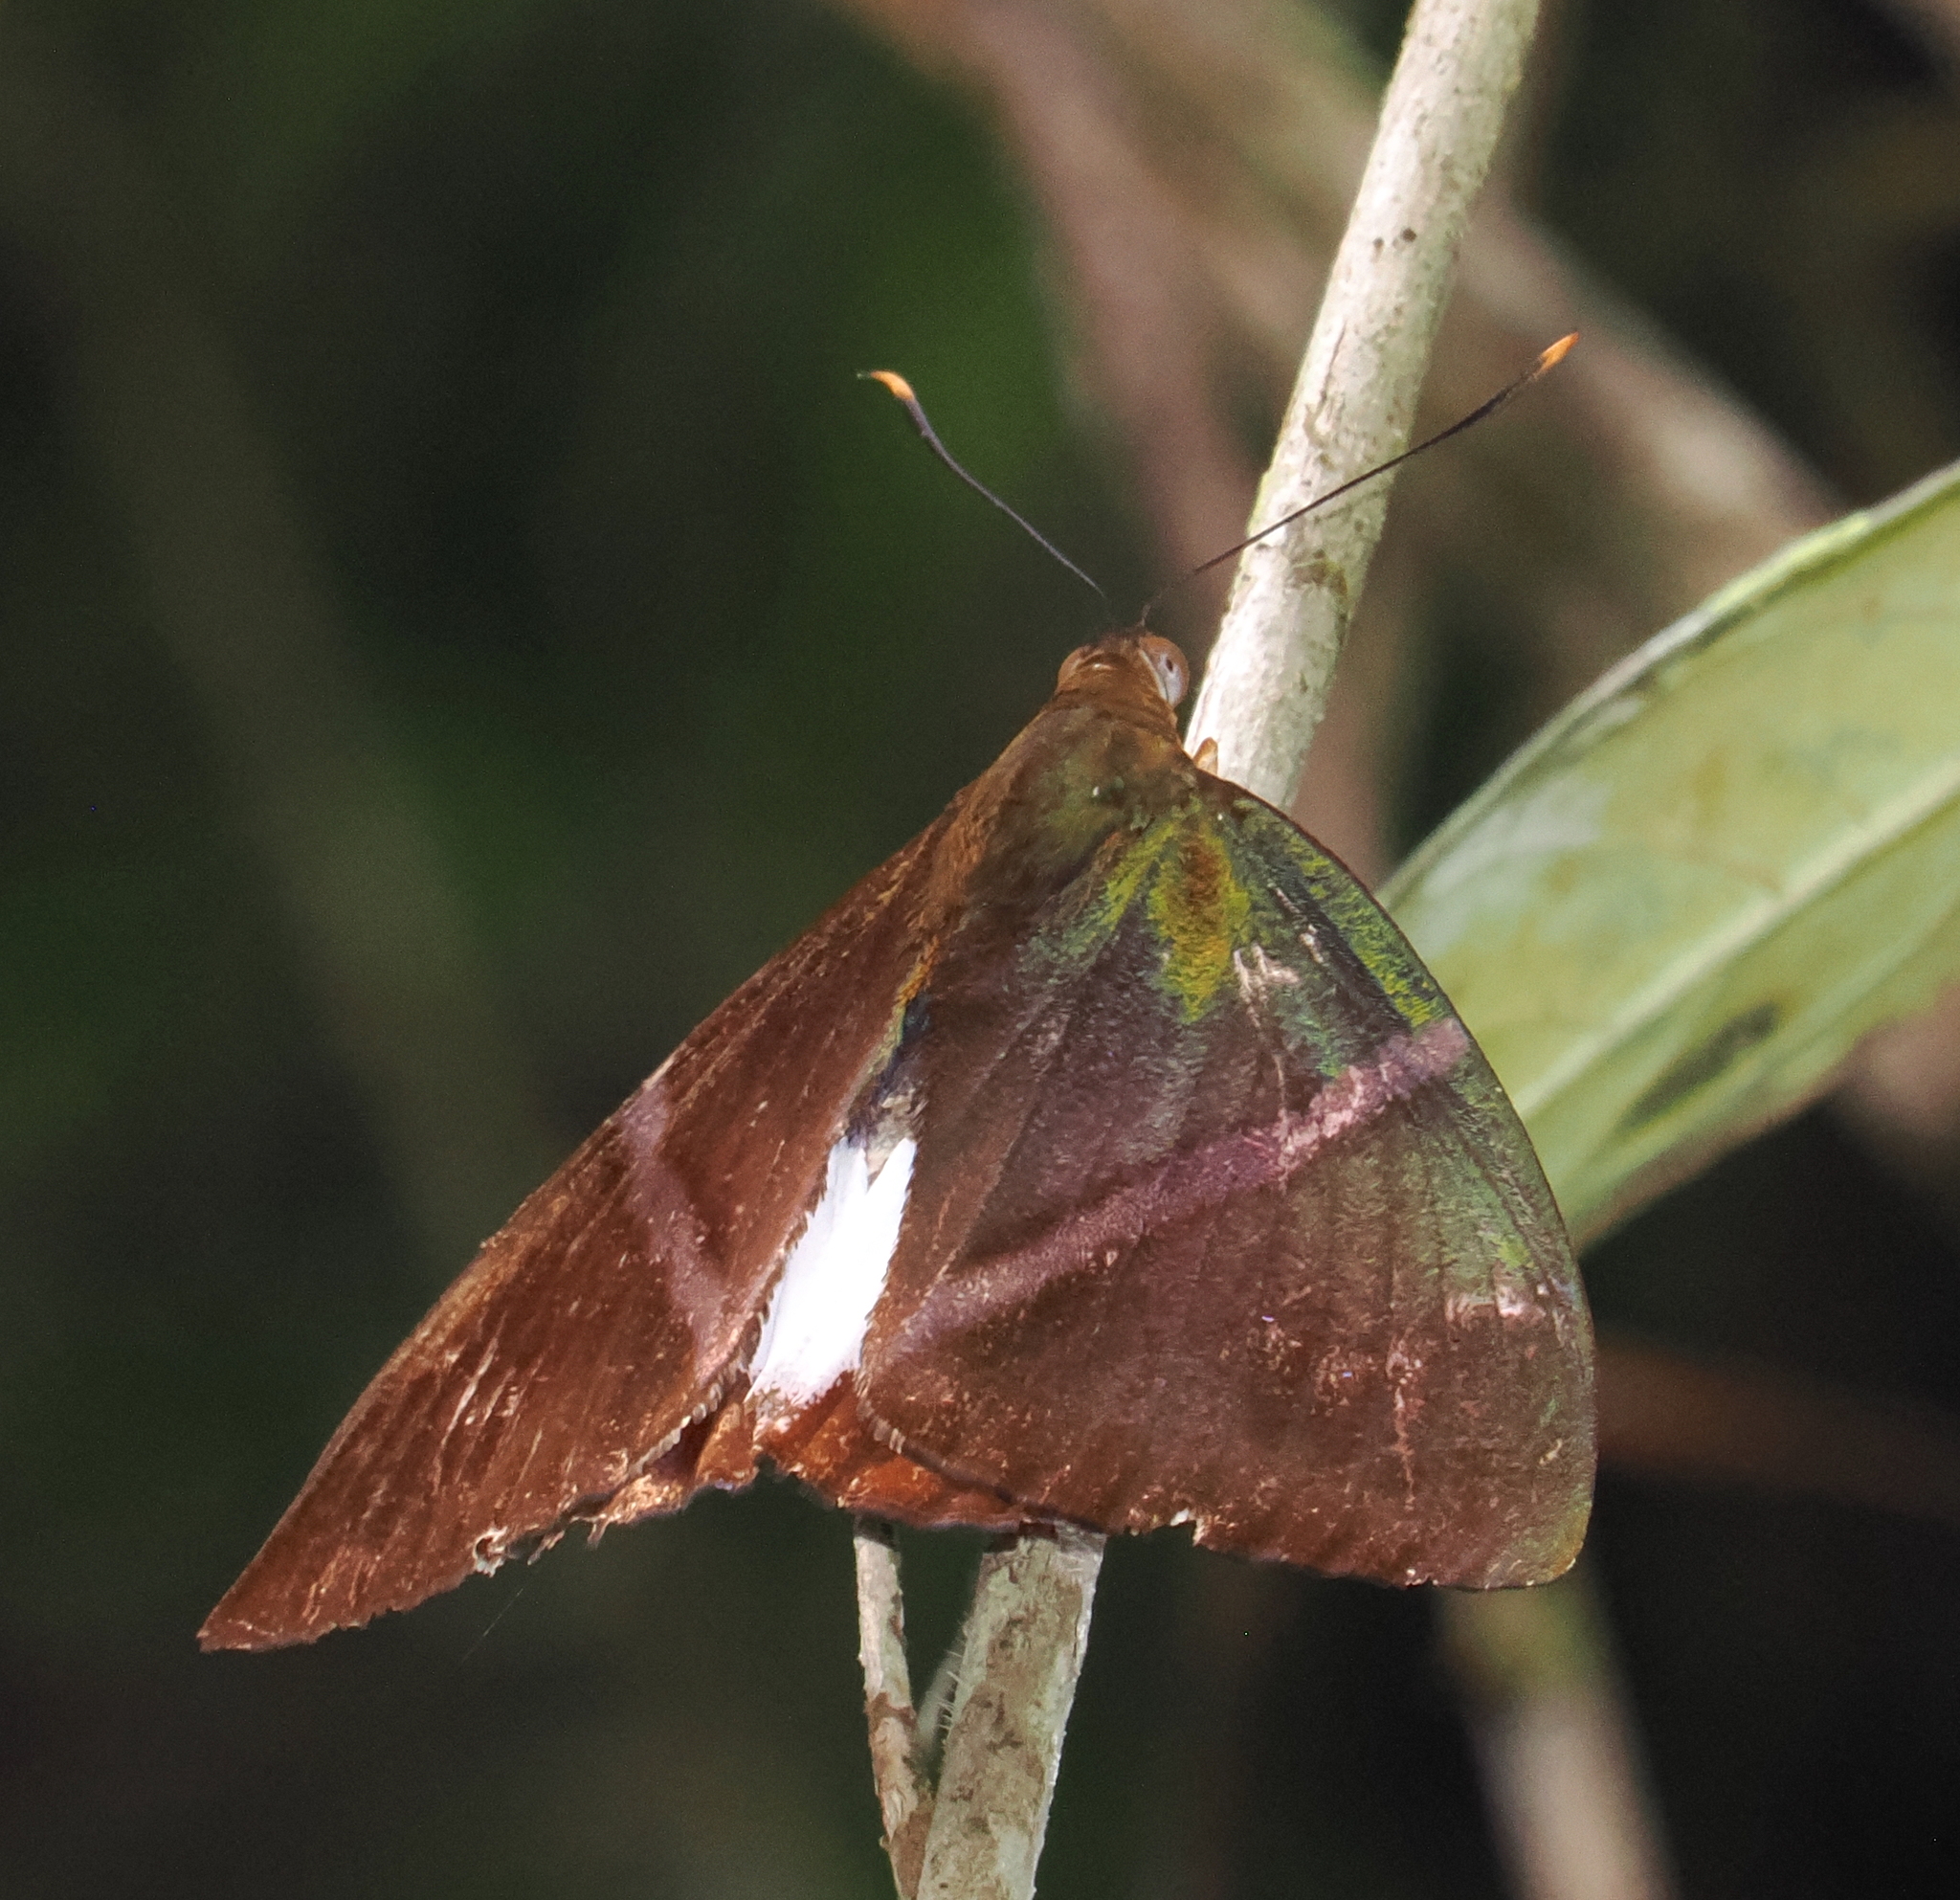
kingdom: Animalia
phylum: Arthropoda
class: Insecta
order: Lepidoptera
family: Castniidae
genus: Castniomera
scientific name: Castniomera atymnius
